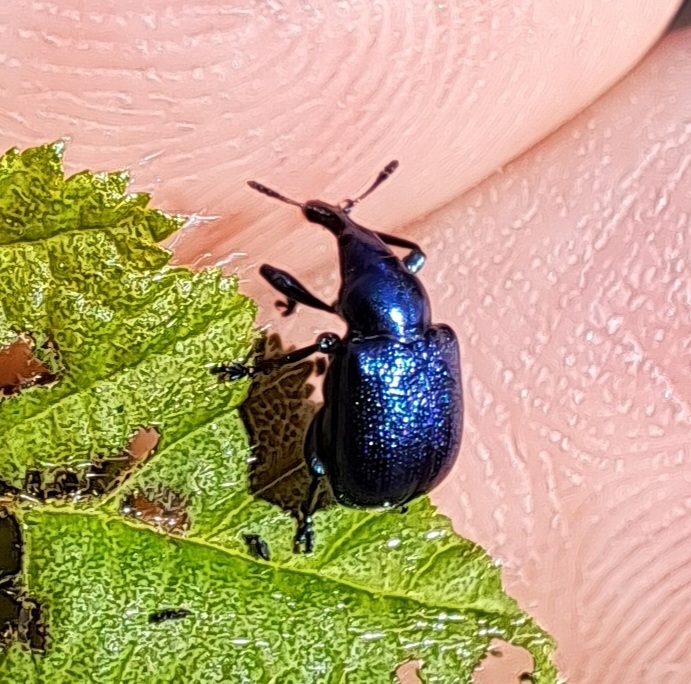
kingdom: Animalia
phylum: Arthropoda
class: Insecta
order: Coleoptera
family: Attelabidae
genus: Byctiscus
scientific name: Byctiscus betulae
